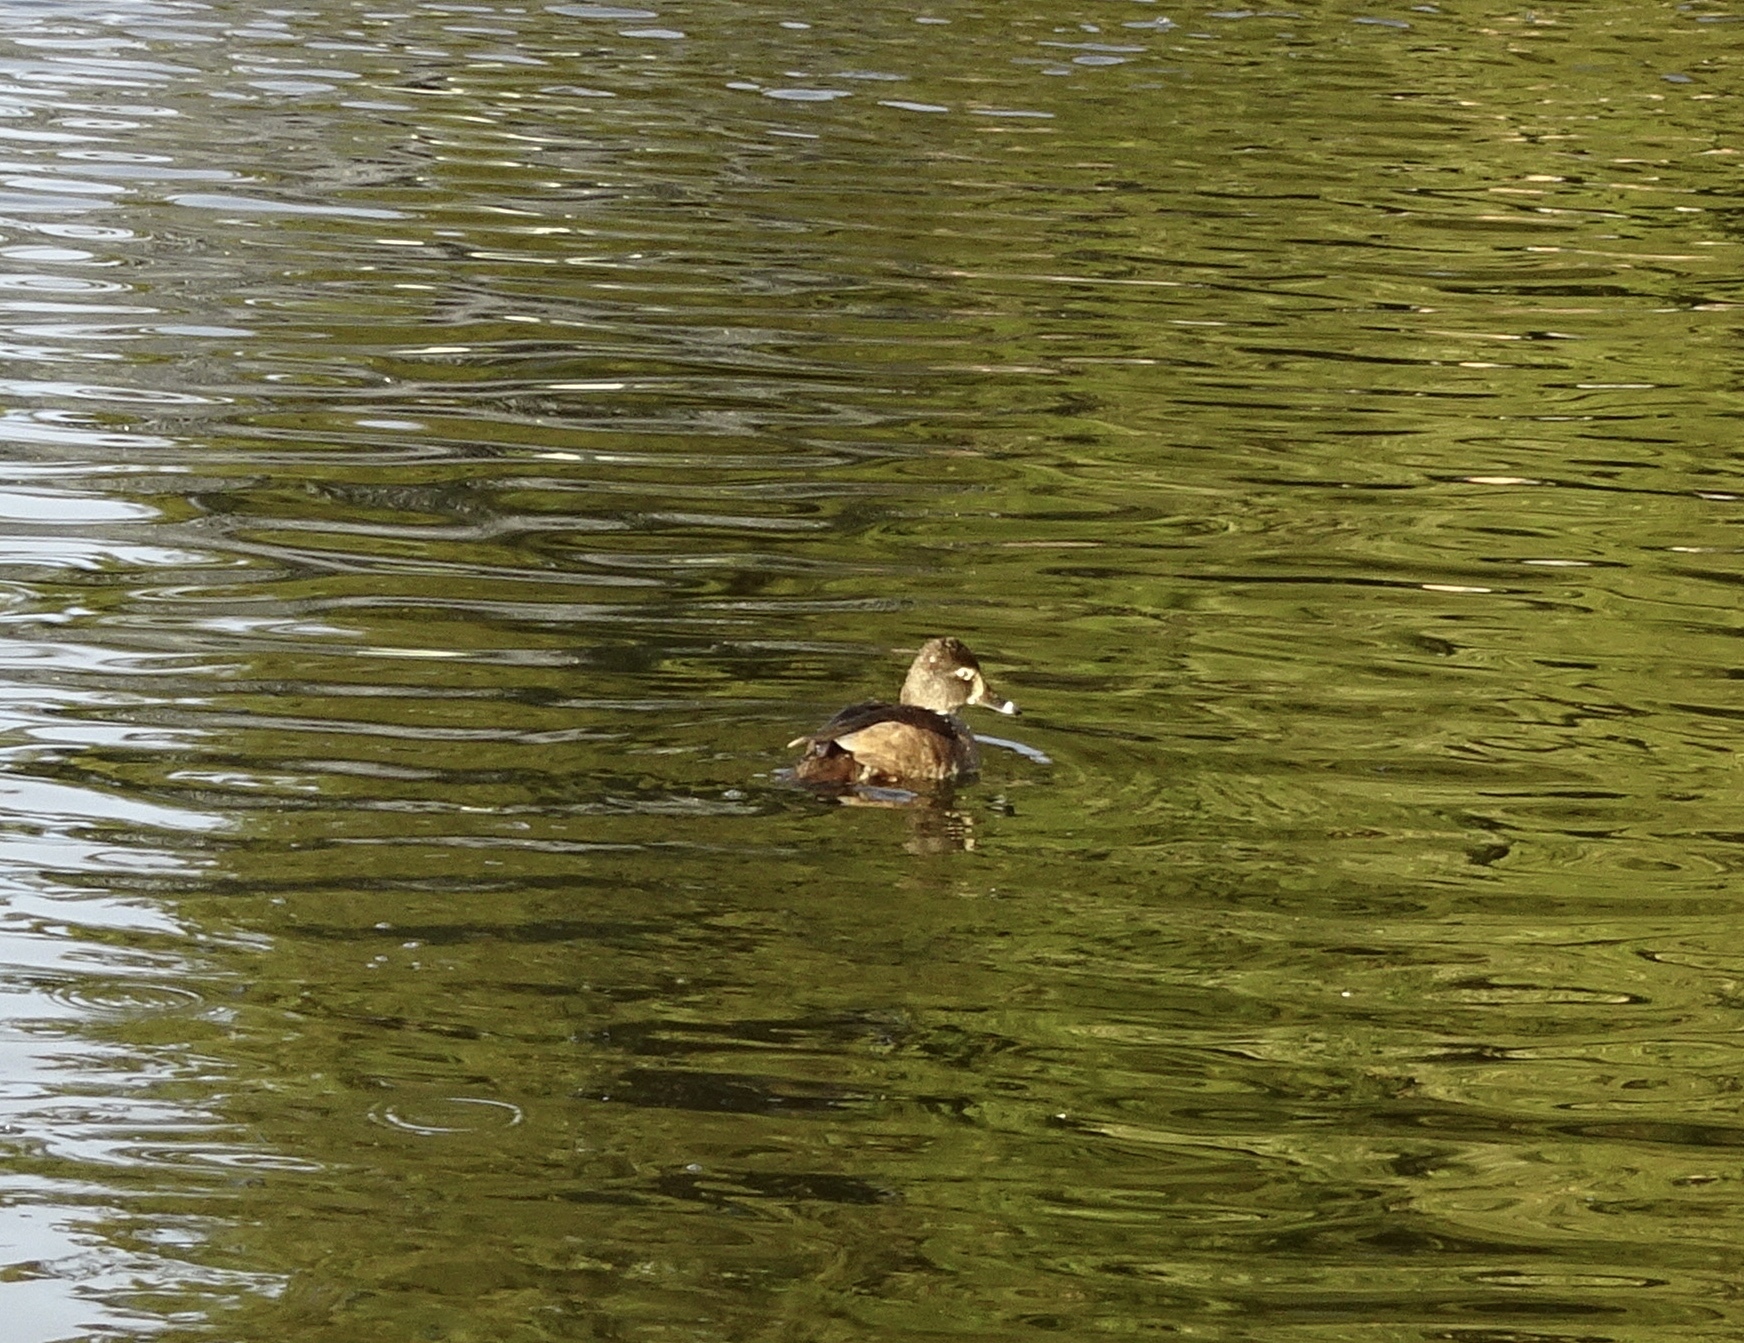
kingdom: Animalia
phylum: Chordata
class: Aves
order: Anseriformes
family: Anatidae
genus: Aythya
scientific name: Aythya collaris
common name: Ring-necked duck
